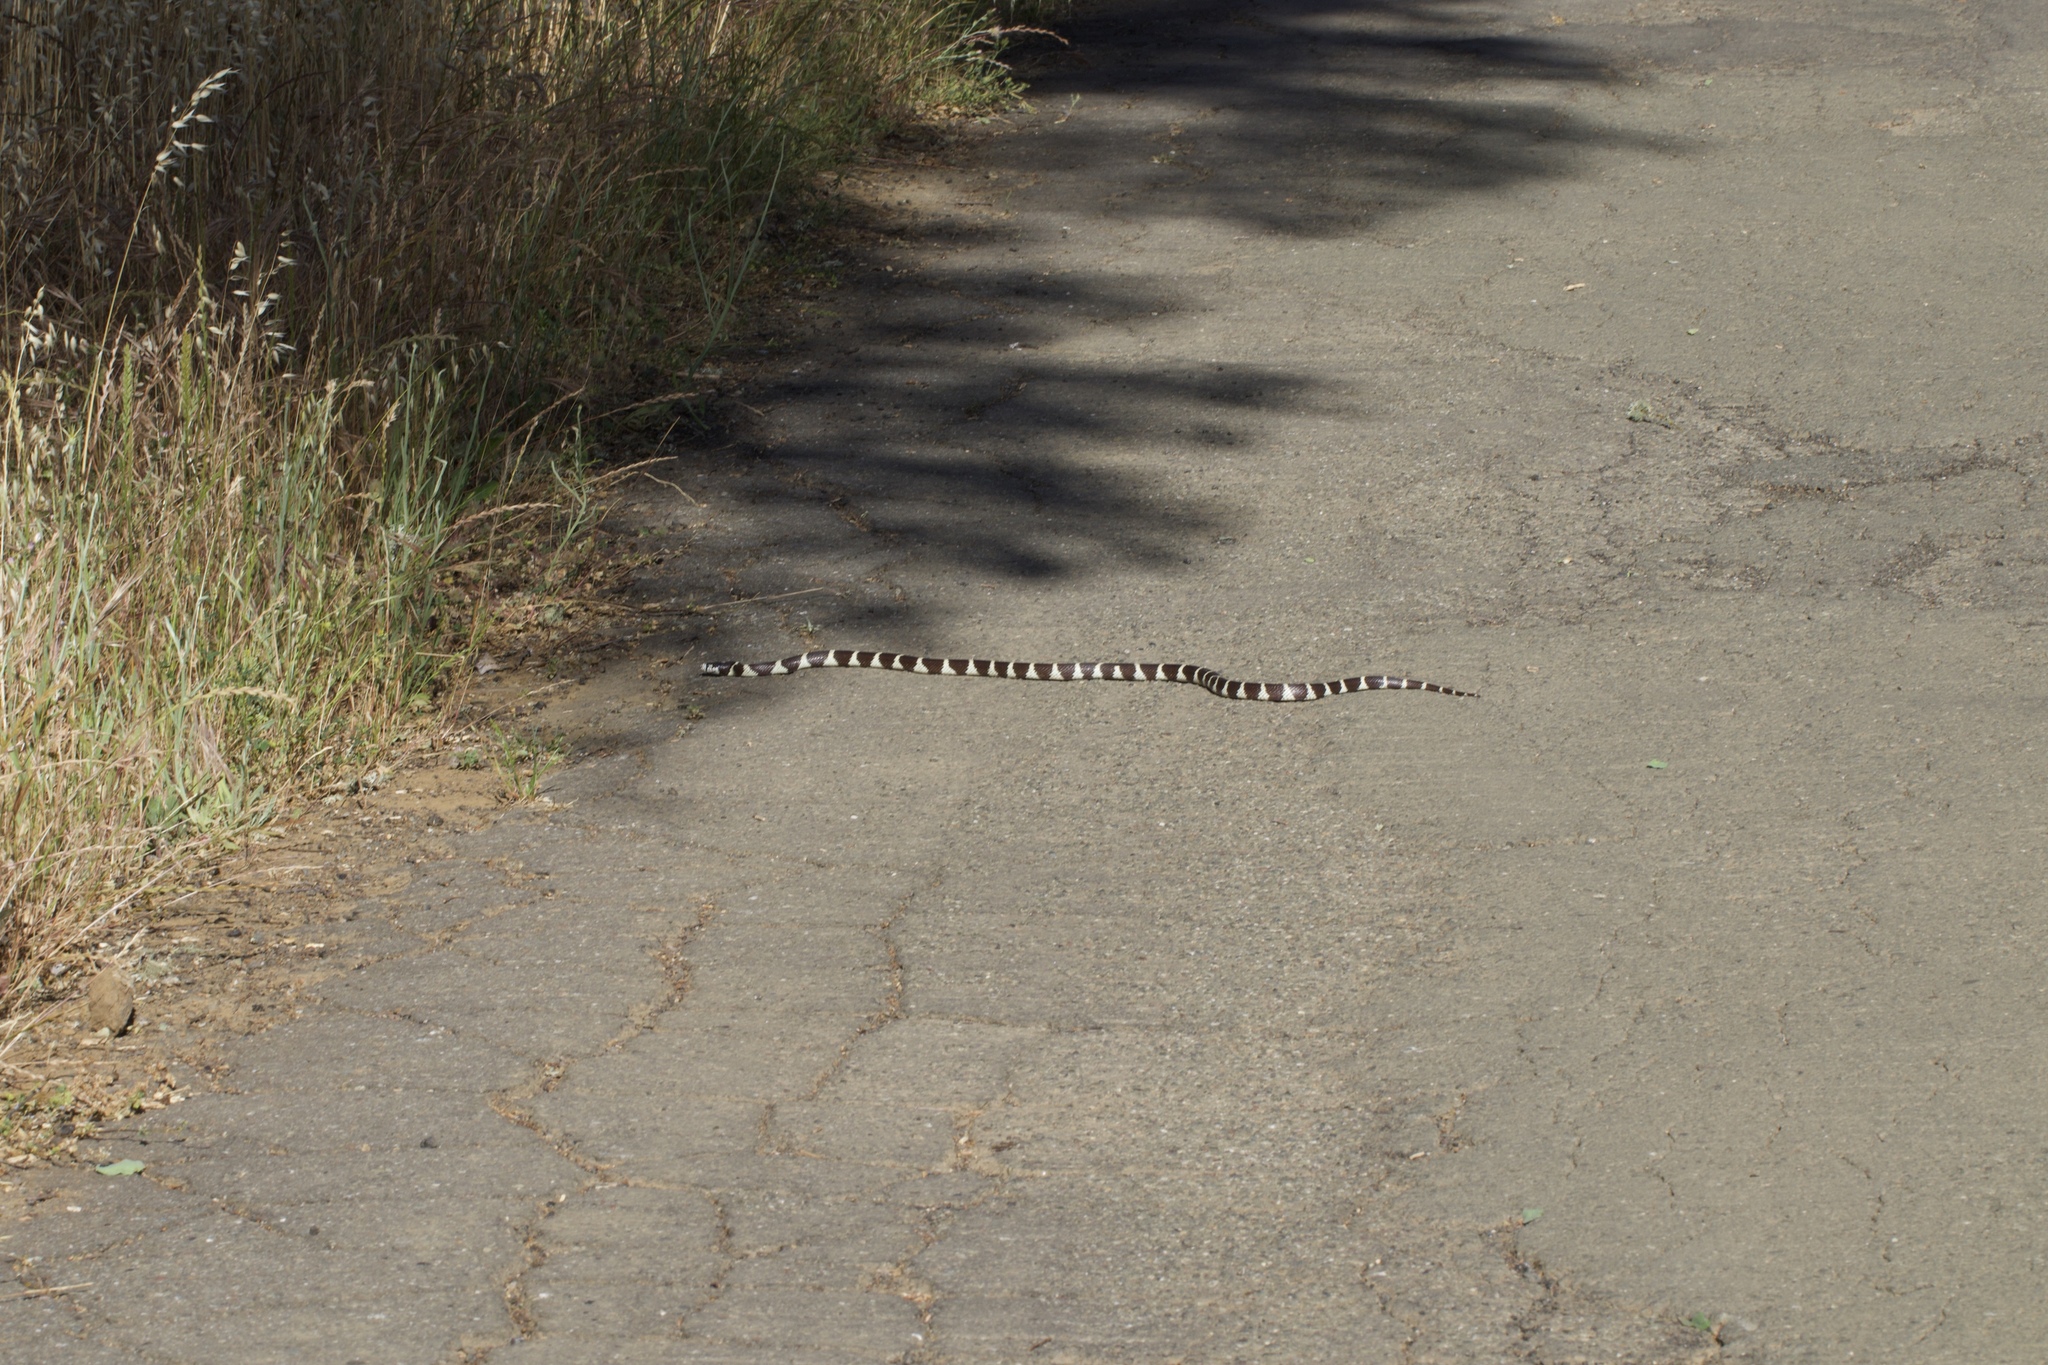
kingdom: Animalia
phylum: Chordata
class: Squamata
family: Colubridae
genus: Lampropeltis
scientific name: Lampropeltis californiae
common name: California kingsnake
